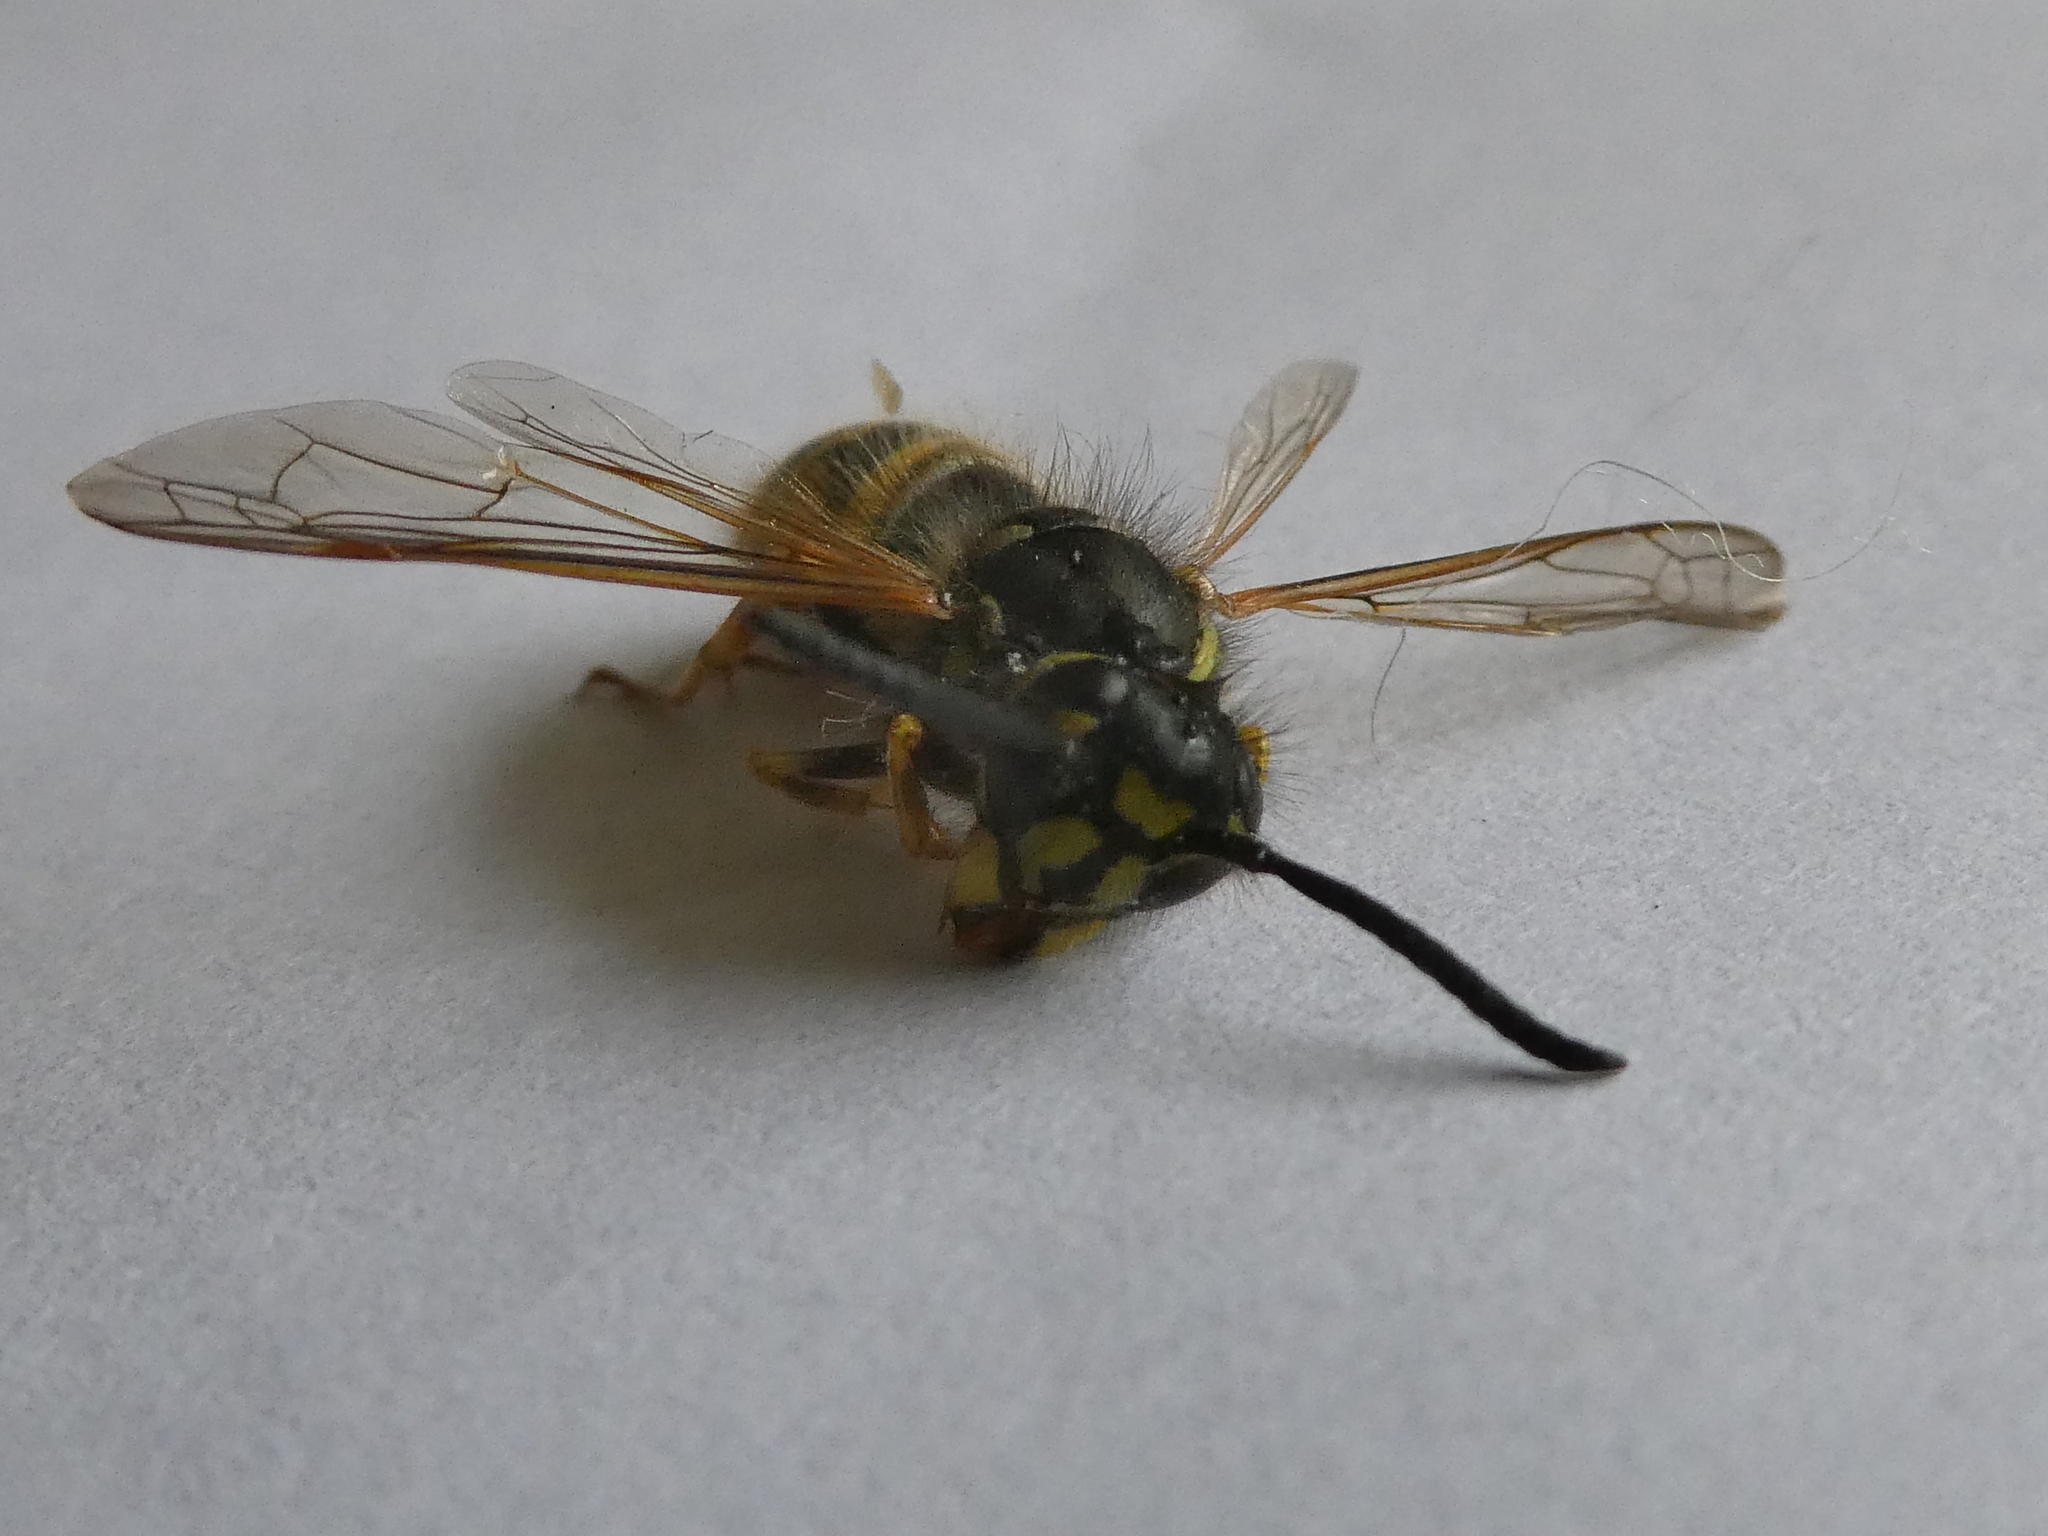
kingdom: Animalia
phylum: Arthropoda
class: Insecta
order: Hymenoptera
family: Vespidae
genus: Vespula
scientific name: Vespula vulgaris
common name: Common wasp
